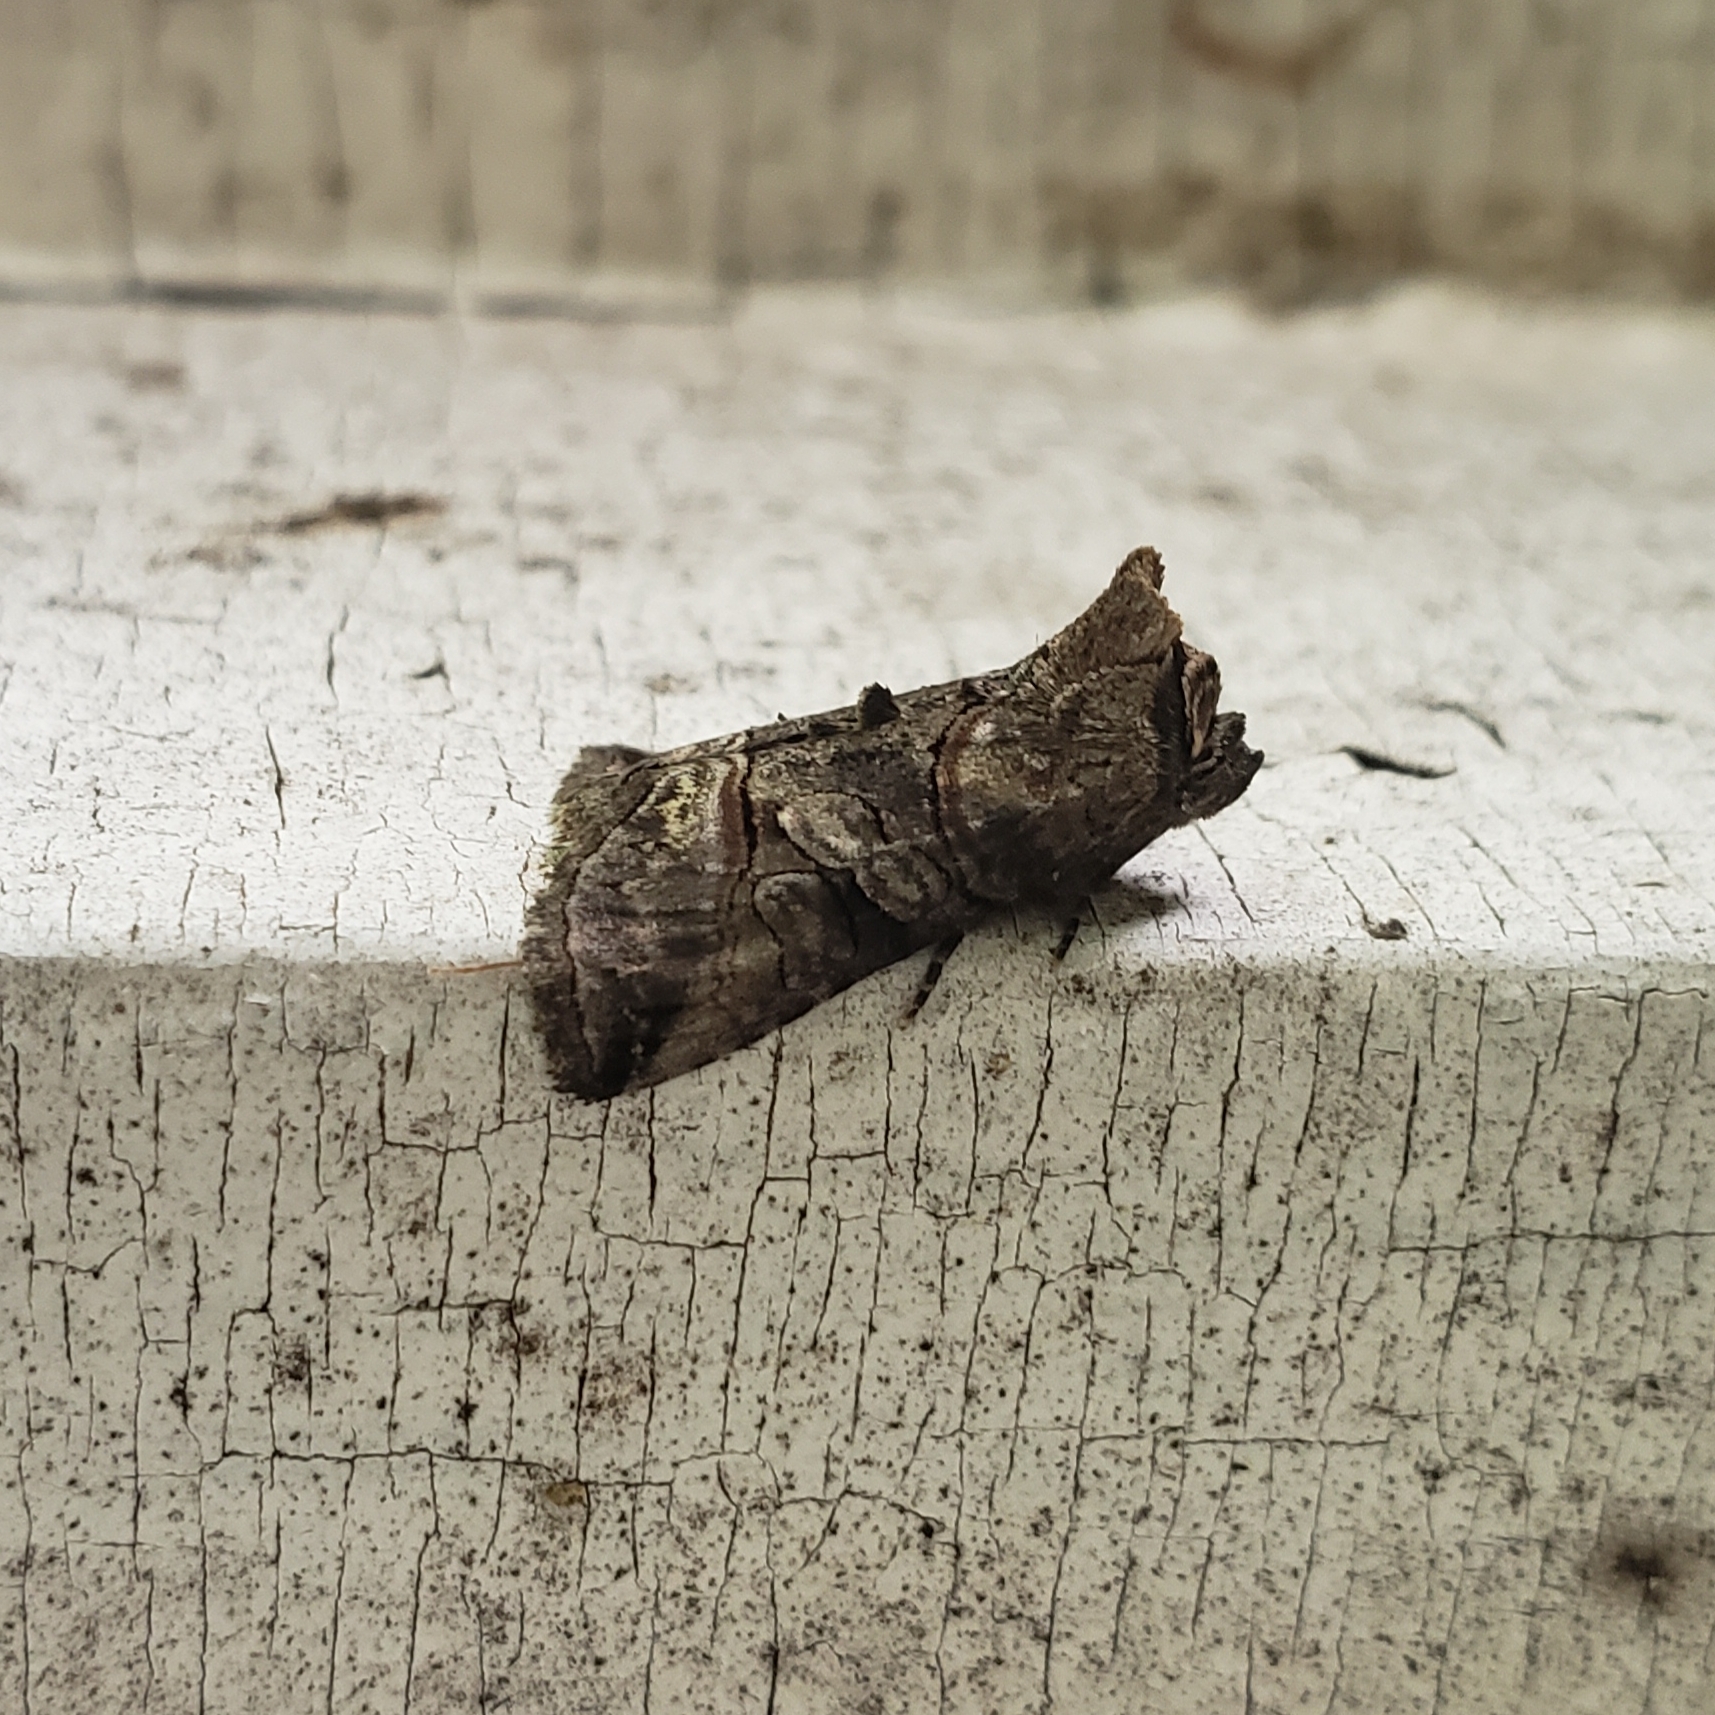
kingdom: Animalia
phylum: Arthropoda
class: Insecta
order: Lepidoptera
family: Noctuidae
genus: Abrostola
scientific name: Abrostola urentis
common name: Spectacled nettle moth
